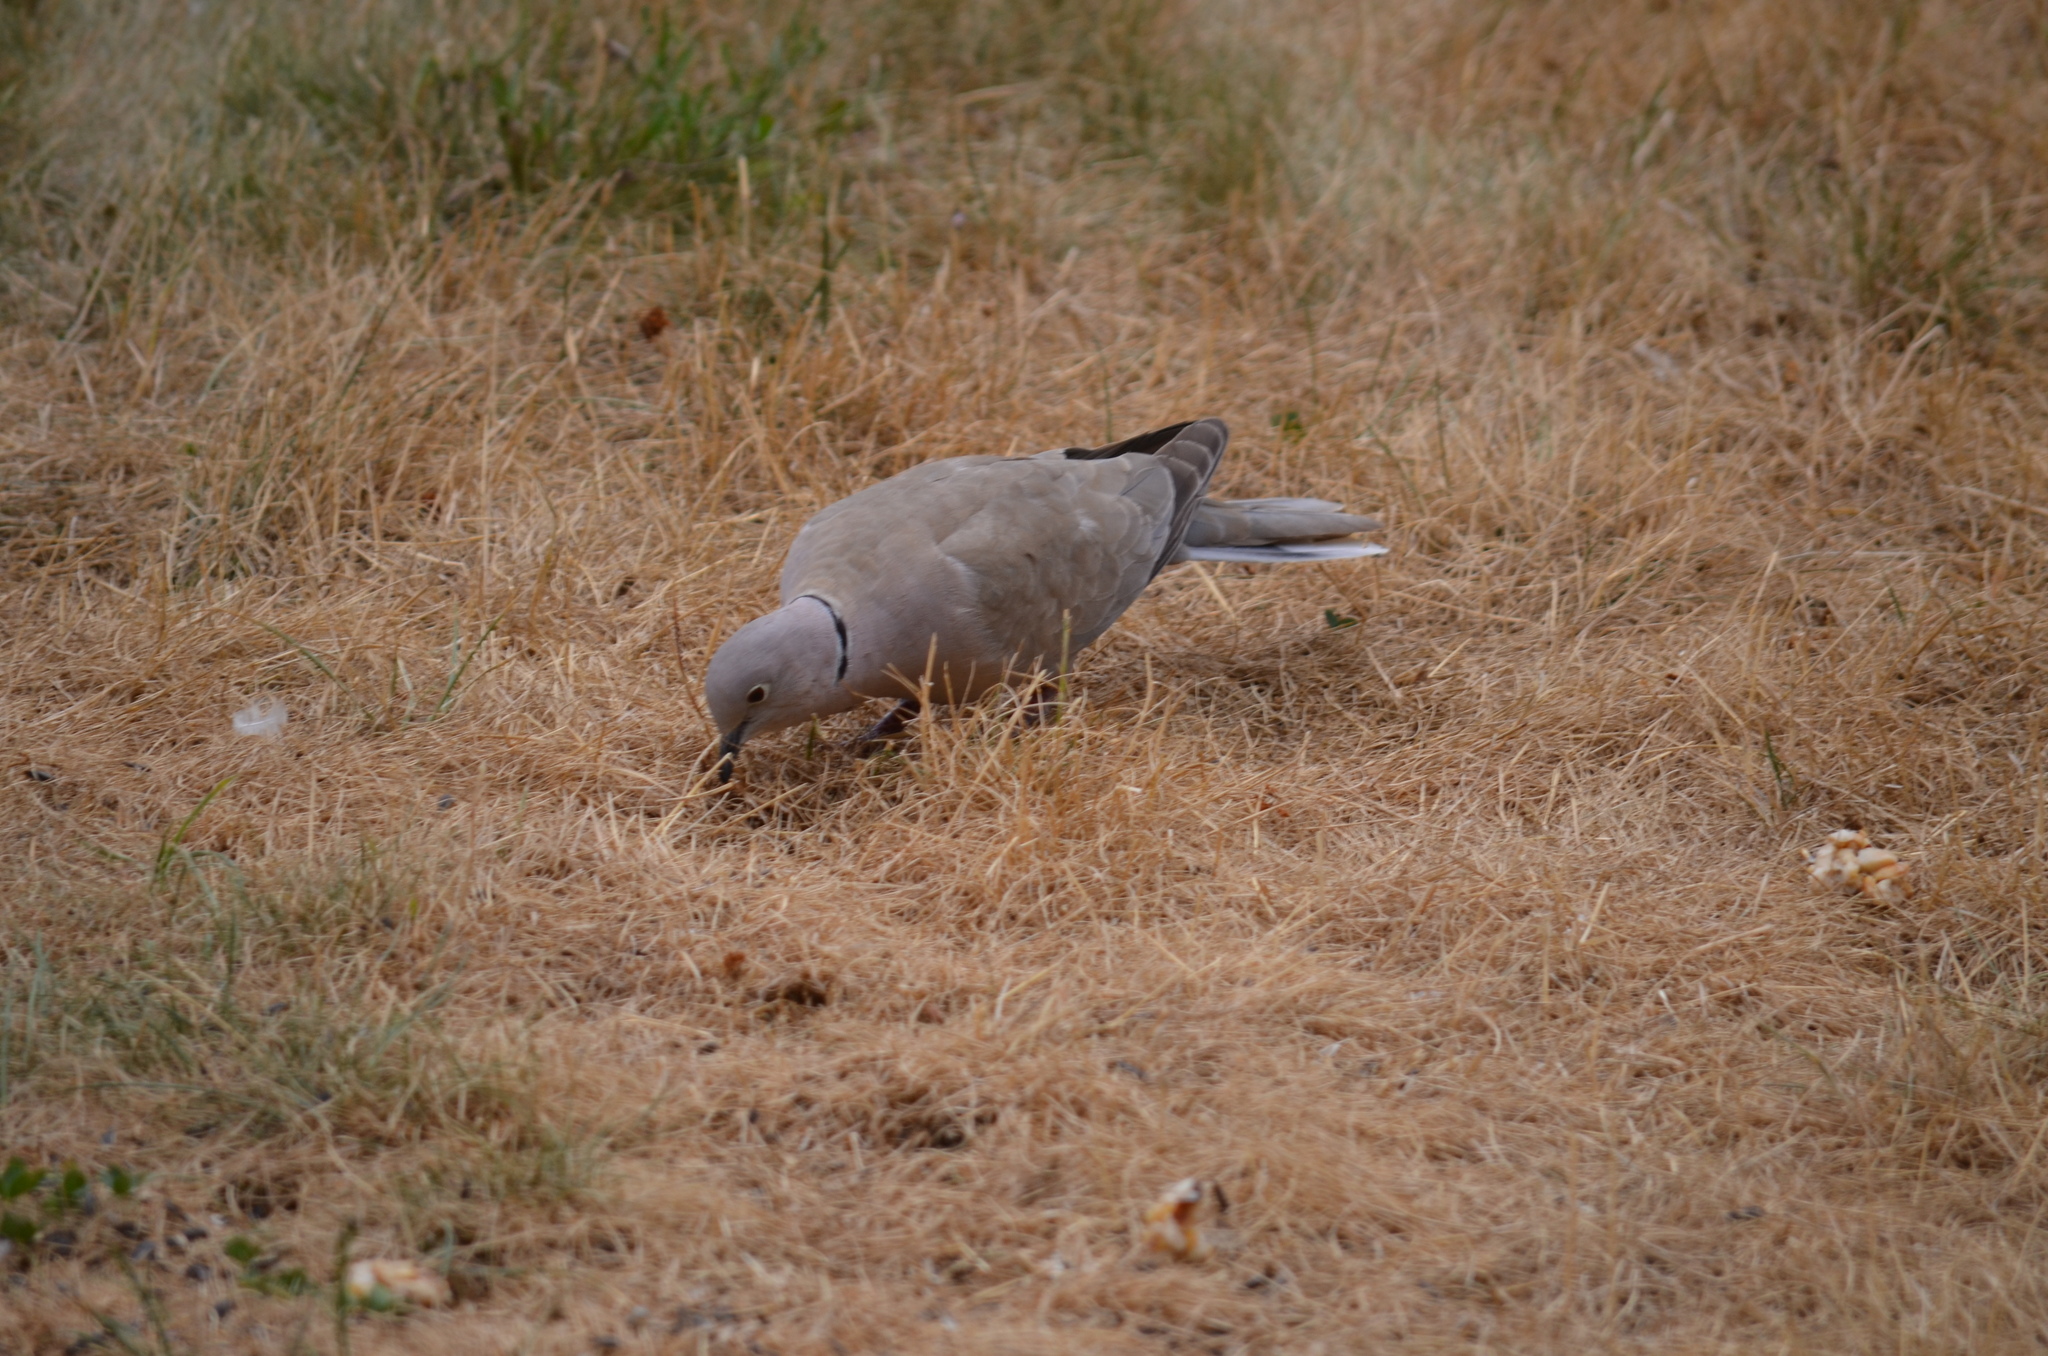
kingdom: Animalia
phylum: Chordata
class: Aves
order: Columbiformes
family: Columbidae
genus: Streptopelia
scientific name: Streptopelia decaocto
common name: Eurasian collared dove
